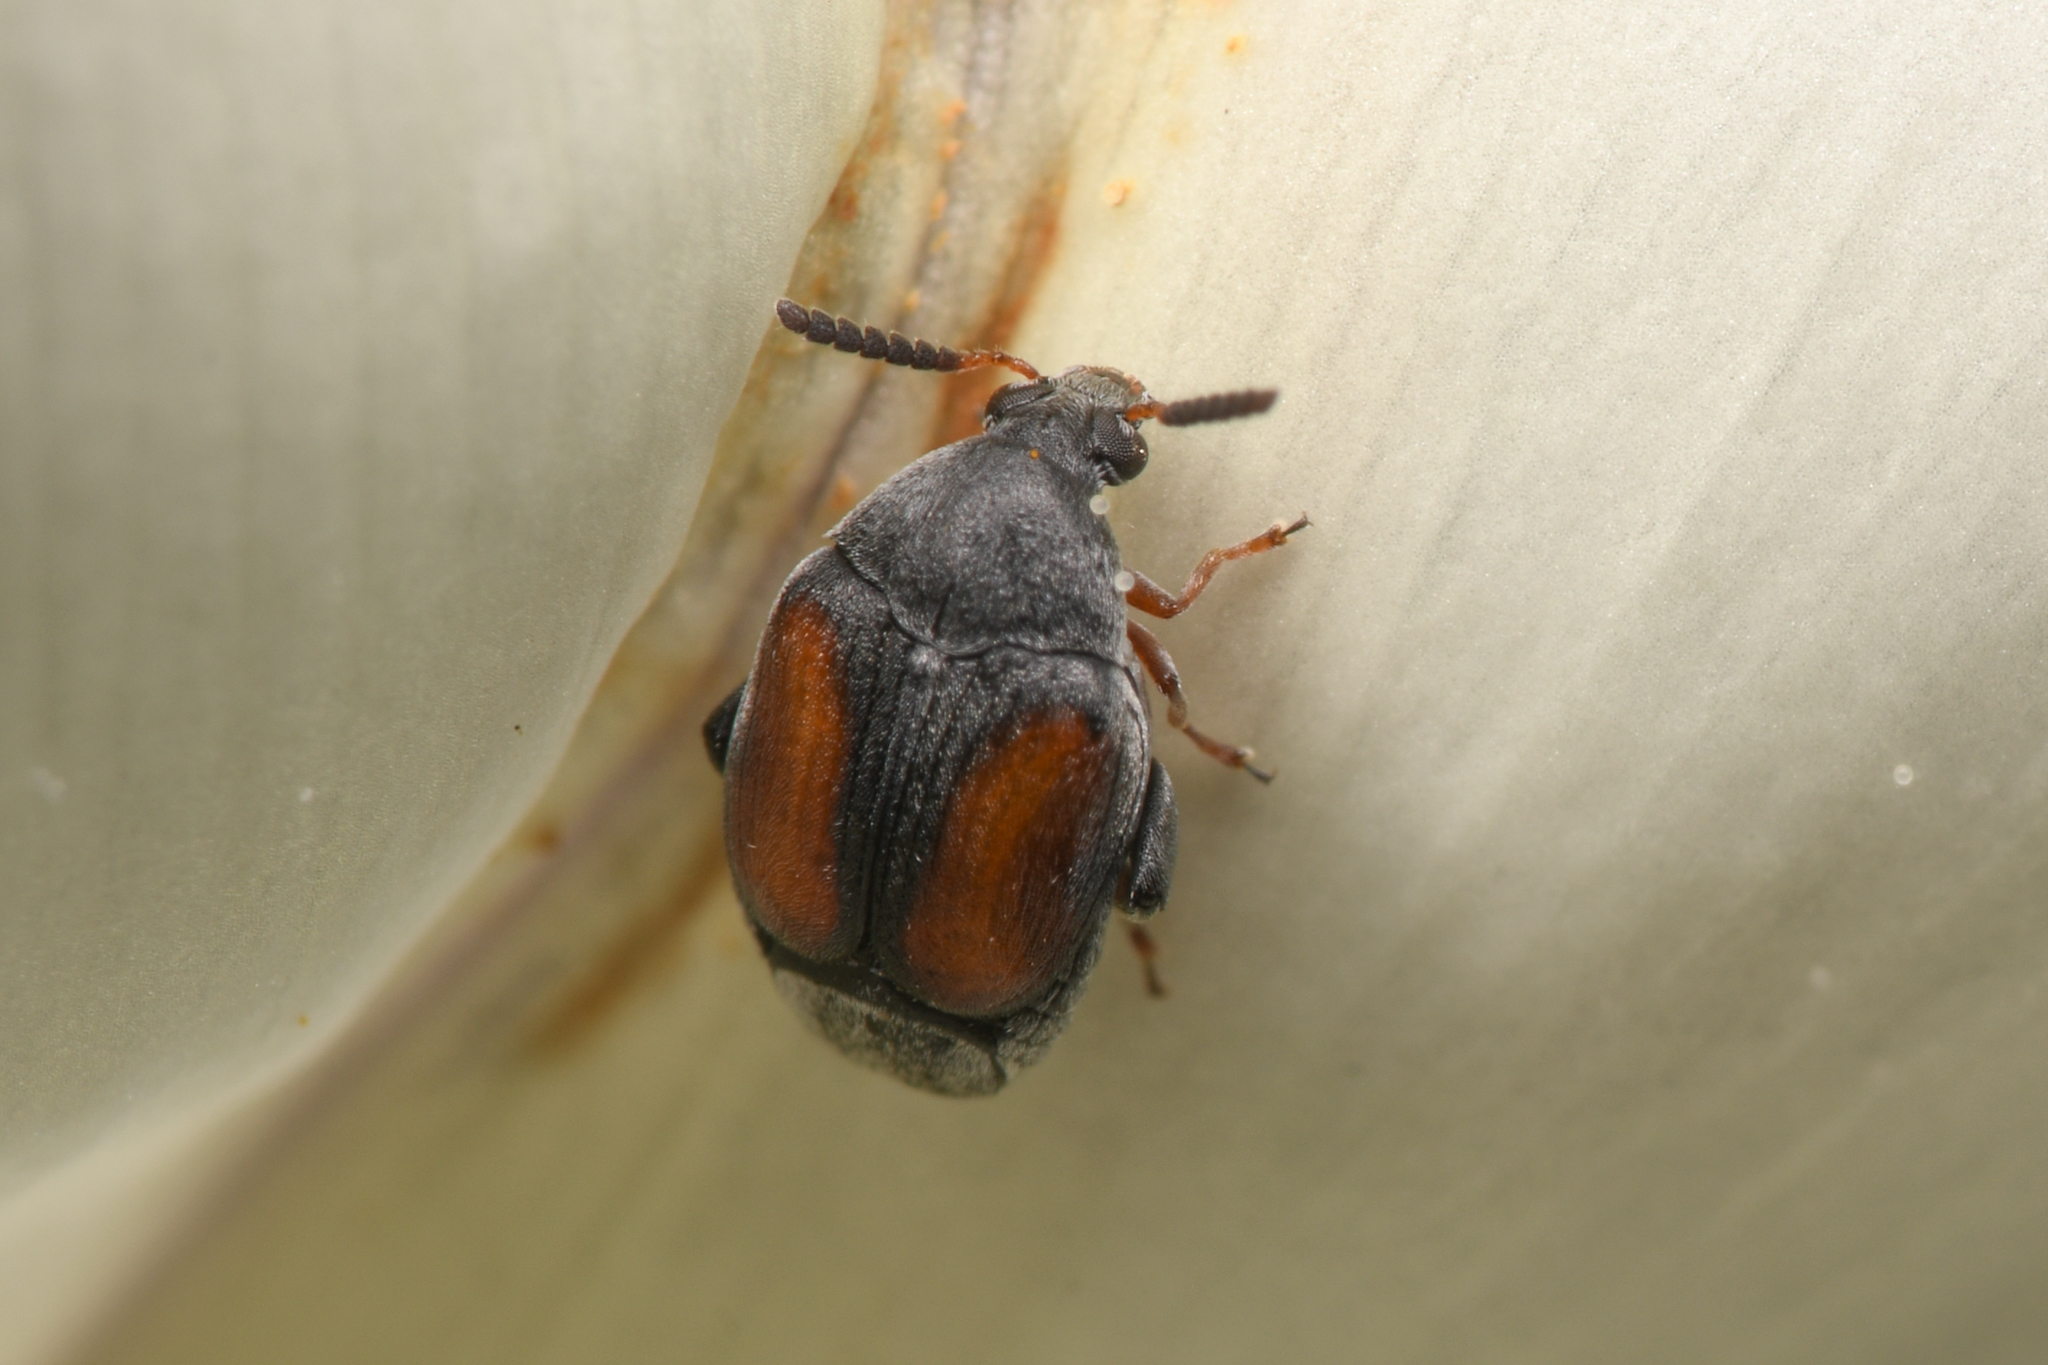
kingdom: Animalia
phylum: Arthropoda
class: Insecta
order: Coleoptera
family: Chrysomelidae
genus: Stator
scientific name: Stator limbatus
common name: Leaf beetle
